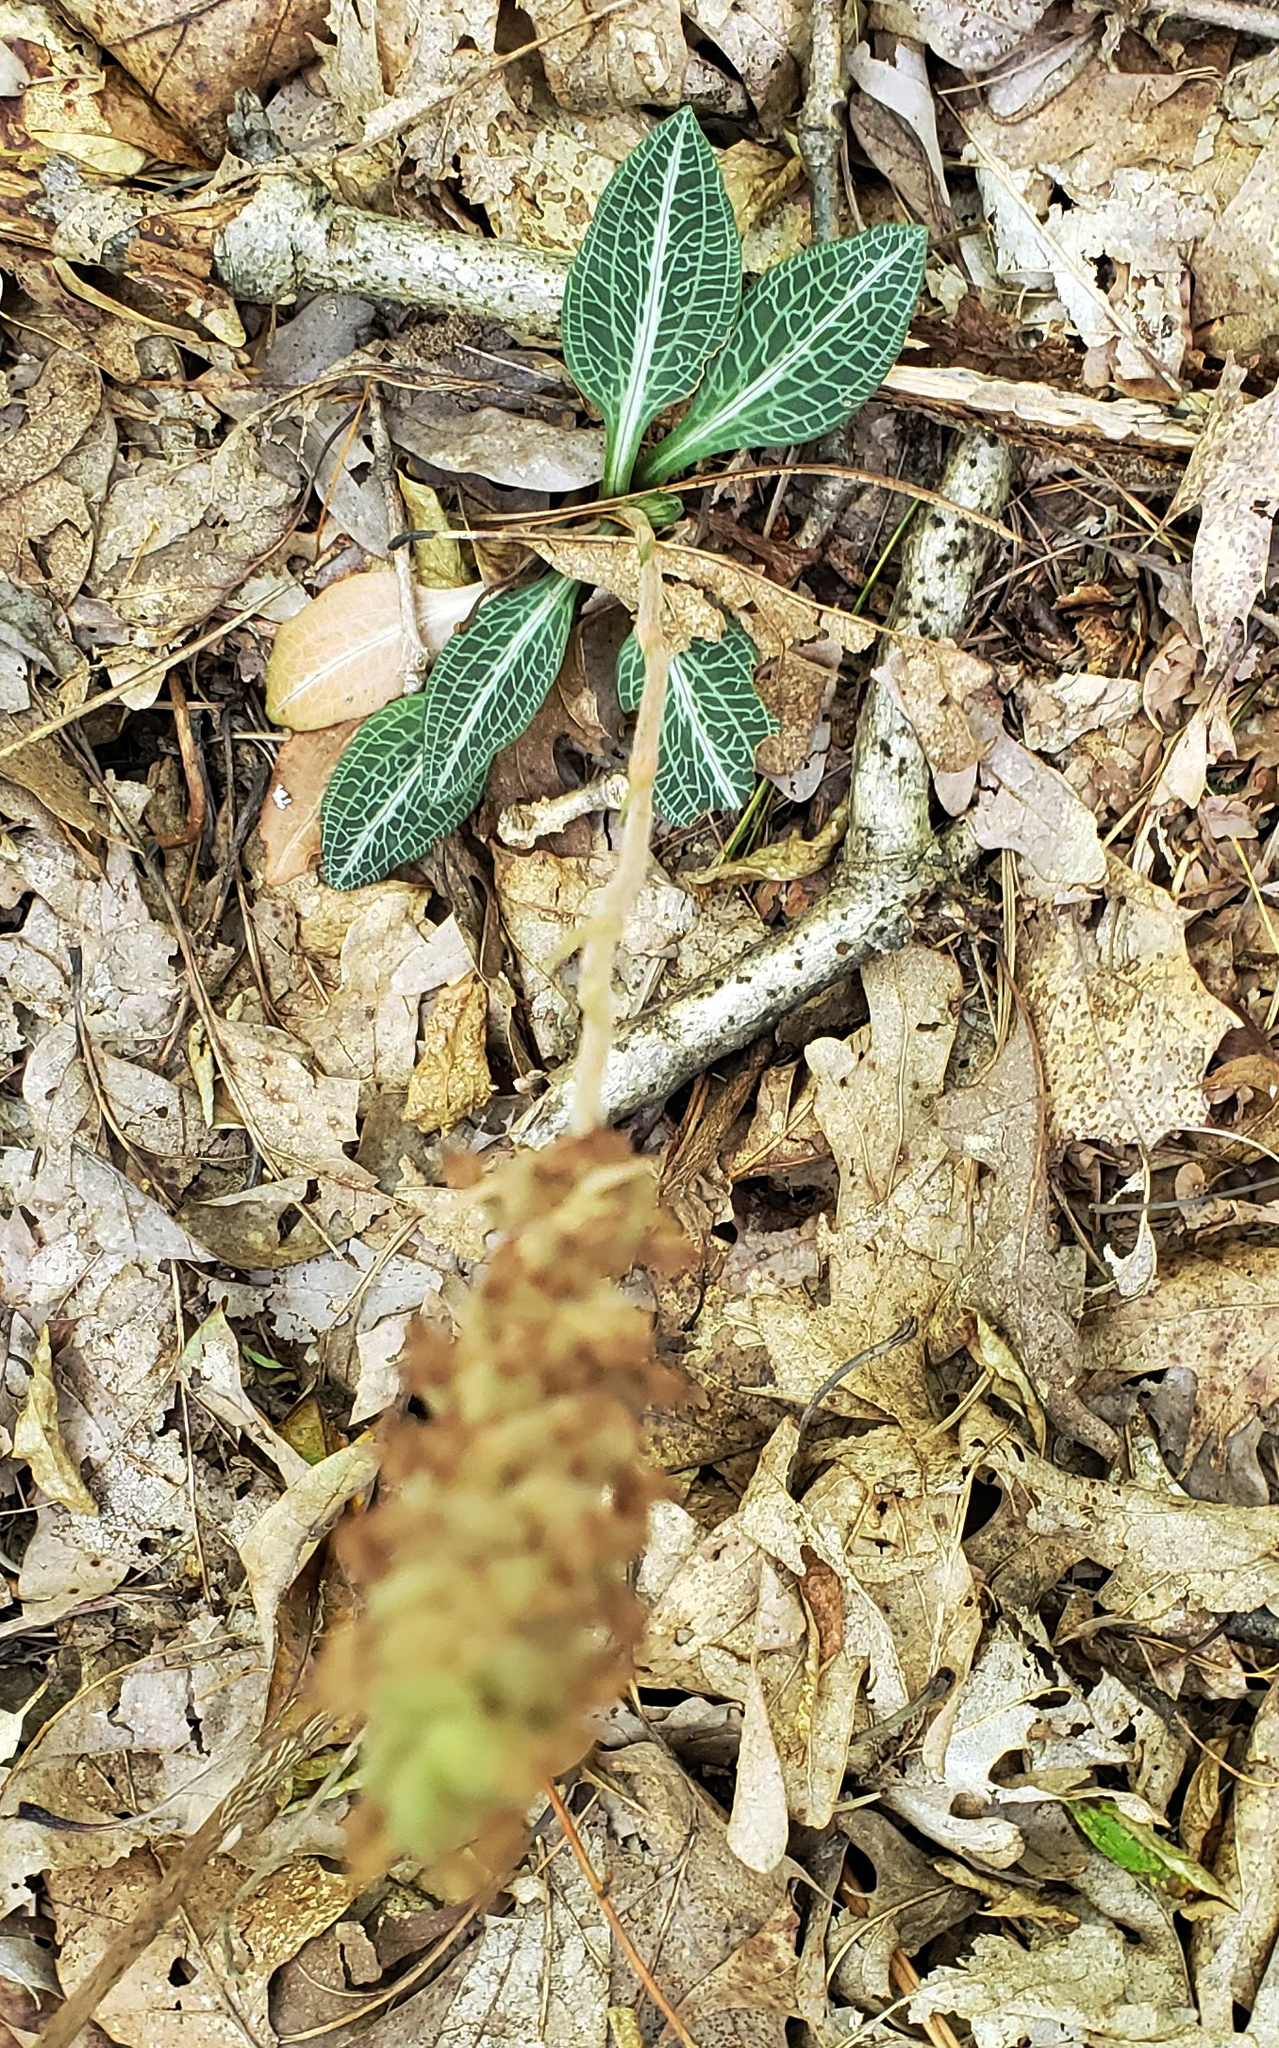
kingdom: Plantae
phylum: Tracheophyta
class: Liliopsida
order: Asparagales
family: Orchidaceae
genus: Goodyera
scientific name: Goodyera pubescens
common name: Downy rattlesnake-plantain
